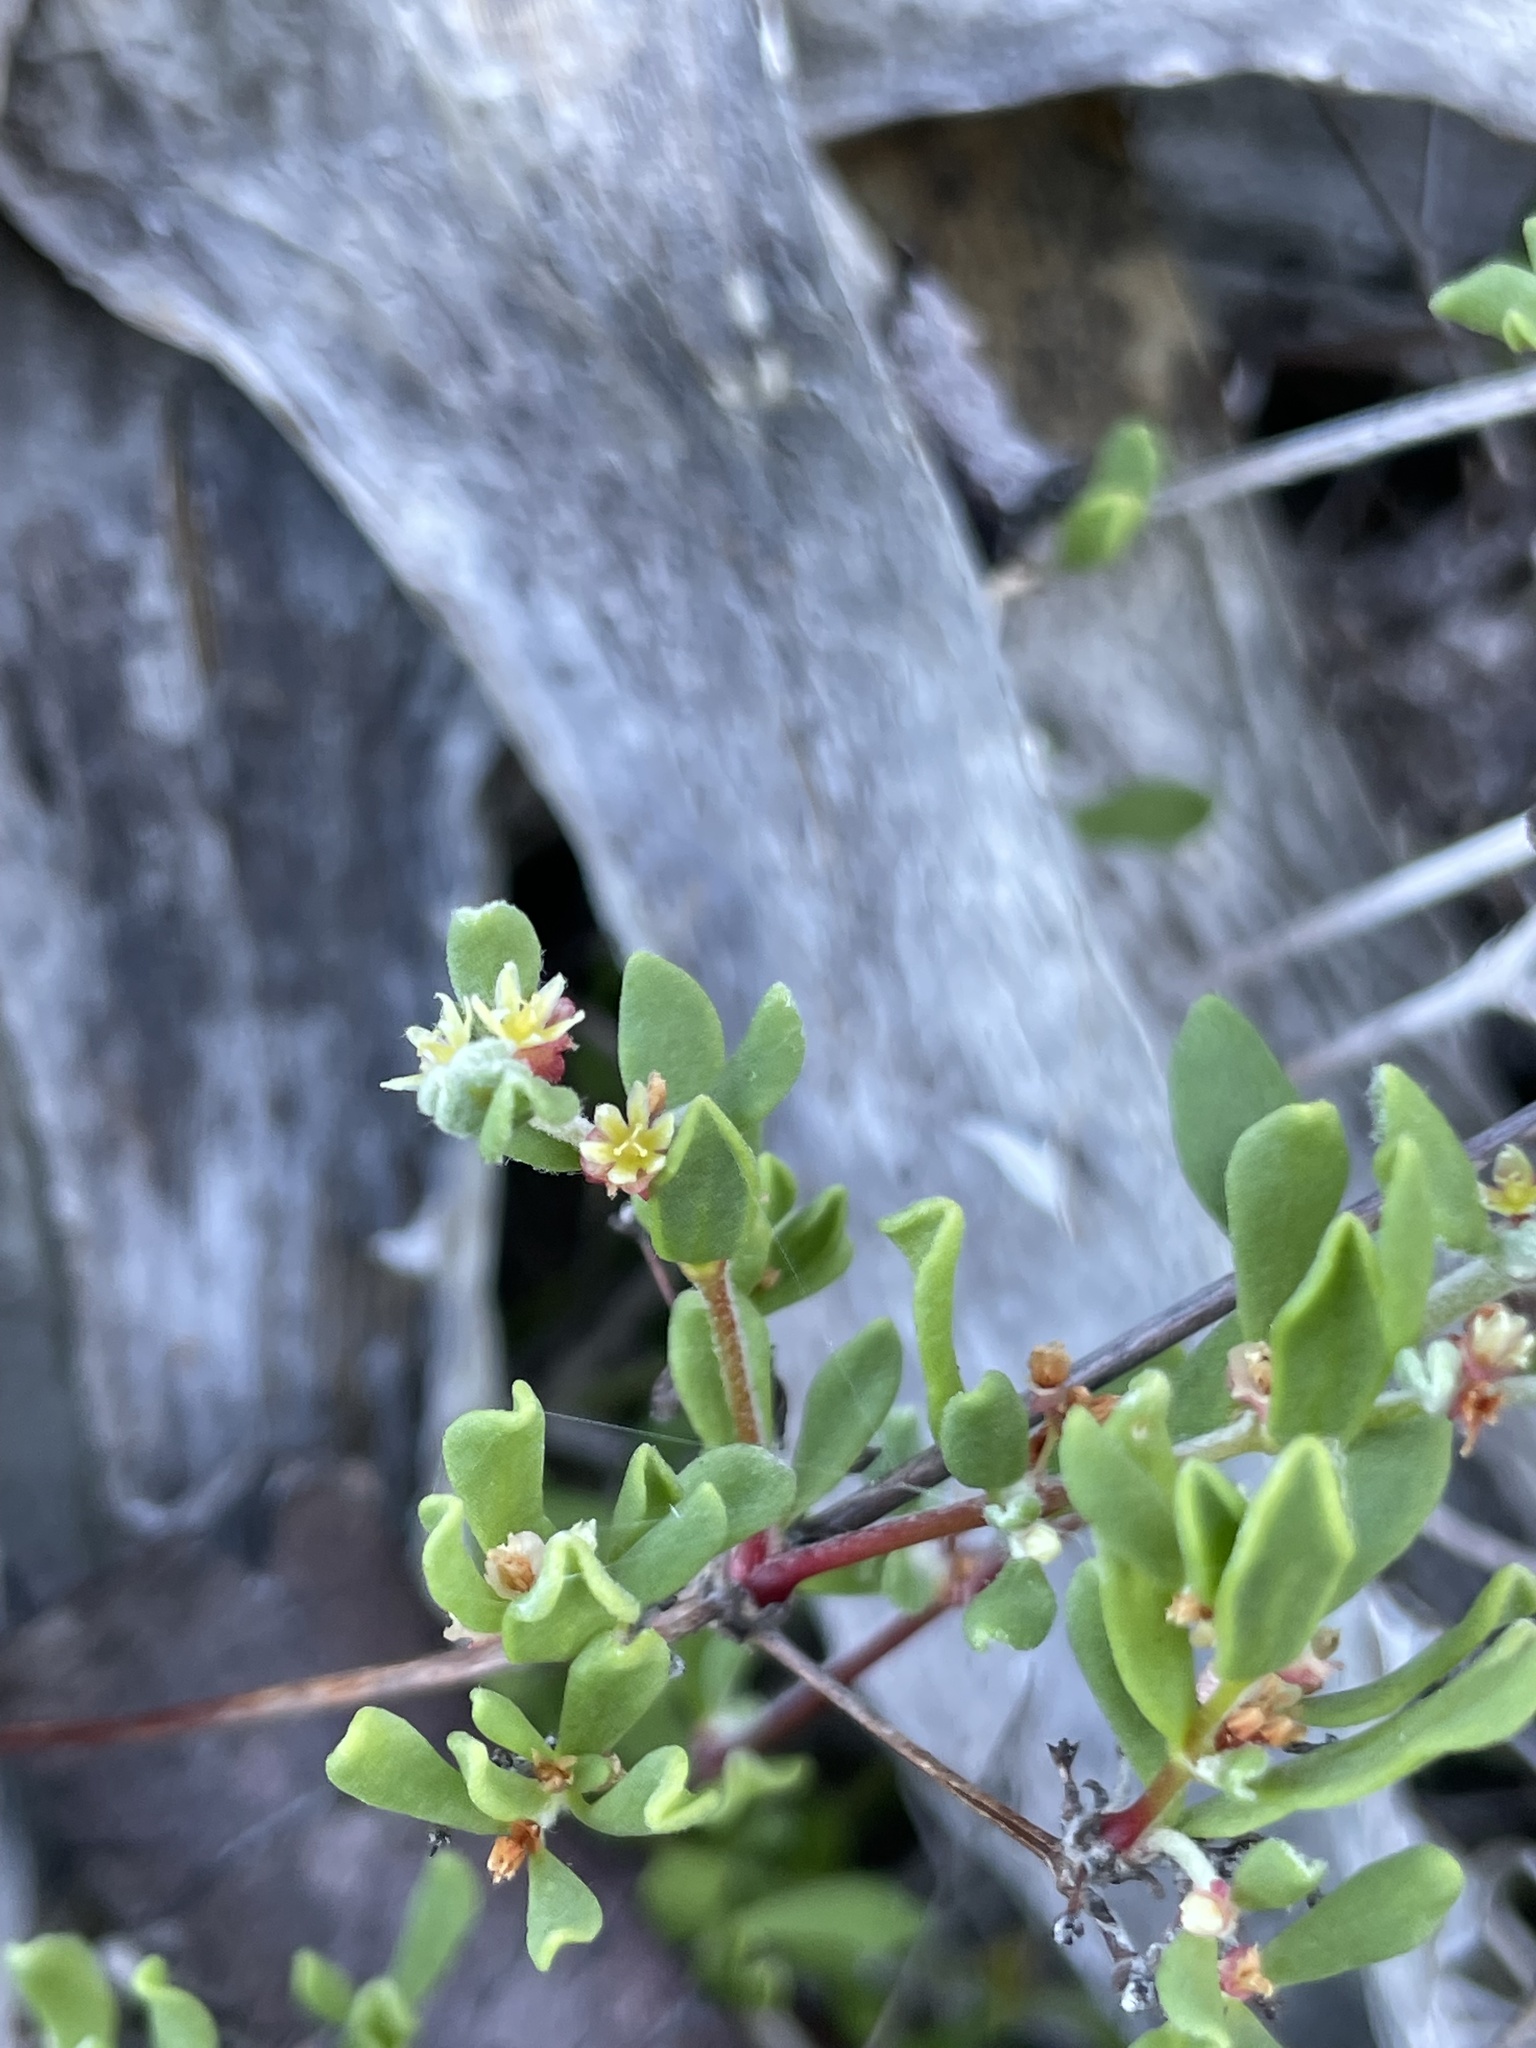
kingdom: Plantae
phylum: Tracheophyta
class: Magnoliopsida
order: Caryophyllales
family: Polygonaceae
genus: Harfordia
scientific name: Harfordia macroptera
